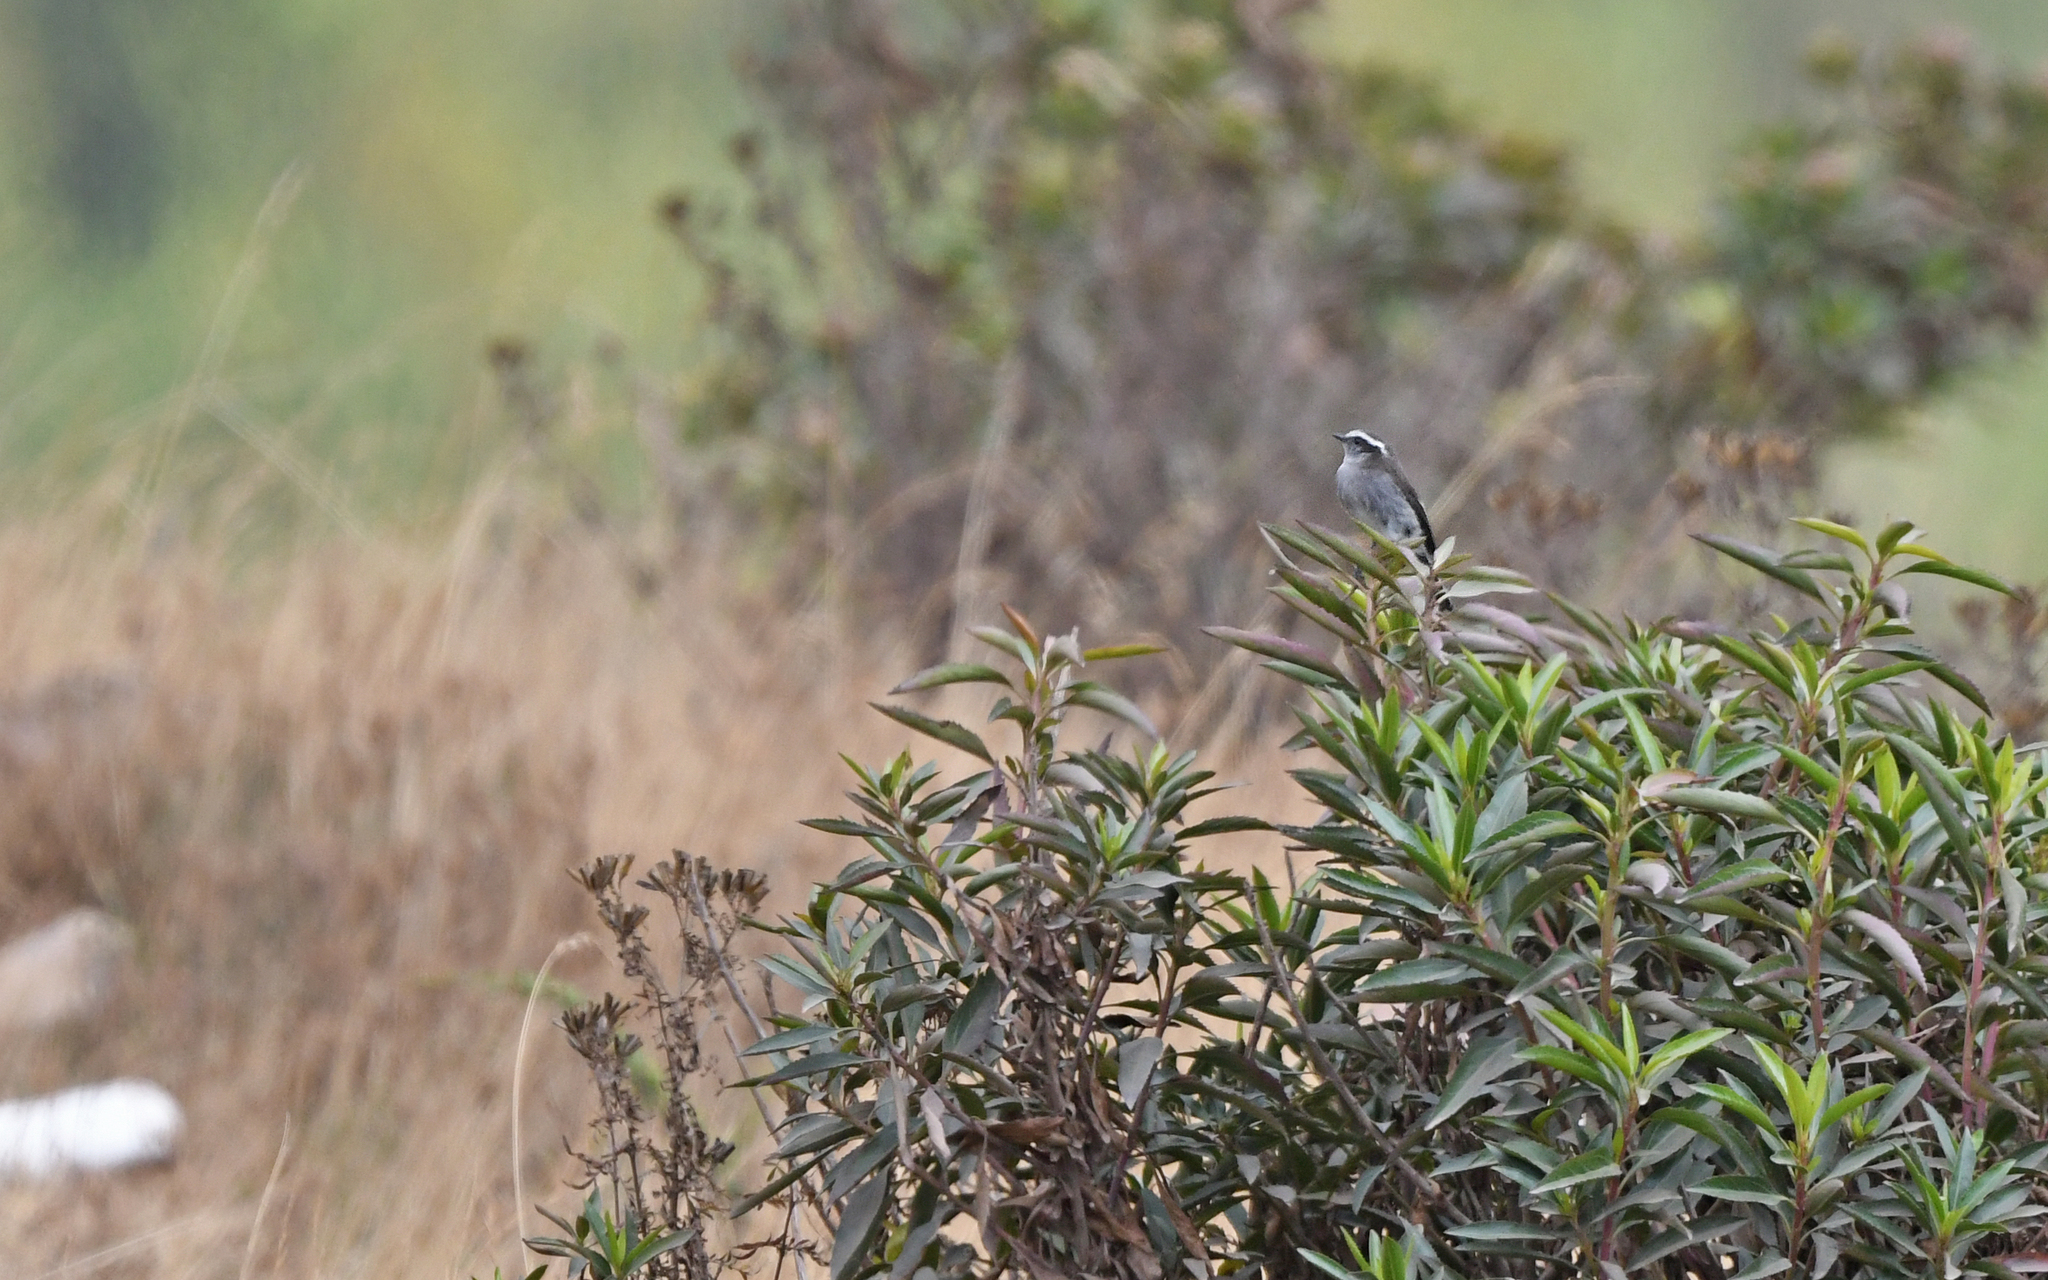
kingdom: Animalia
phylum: Chordata
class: Aves
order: Passeriformes
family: Tyrannidae
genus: Ochthoeca
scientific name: Ochthoeca leucophrys
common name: White-browed chat-tyrant
